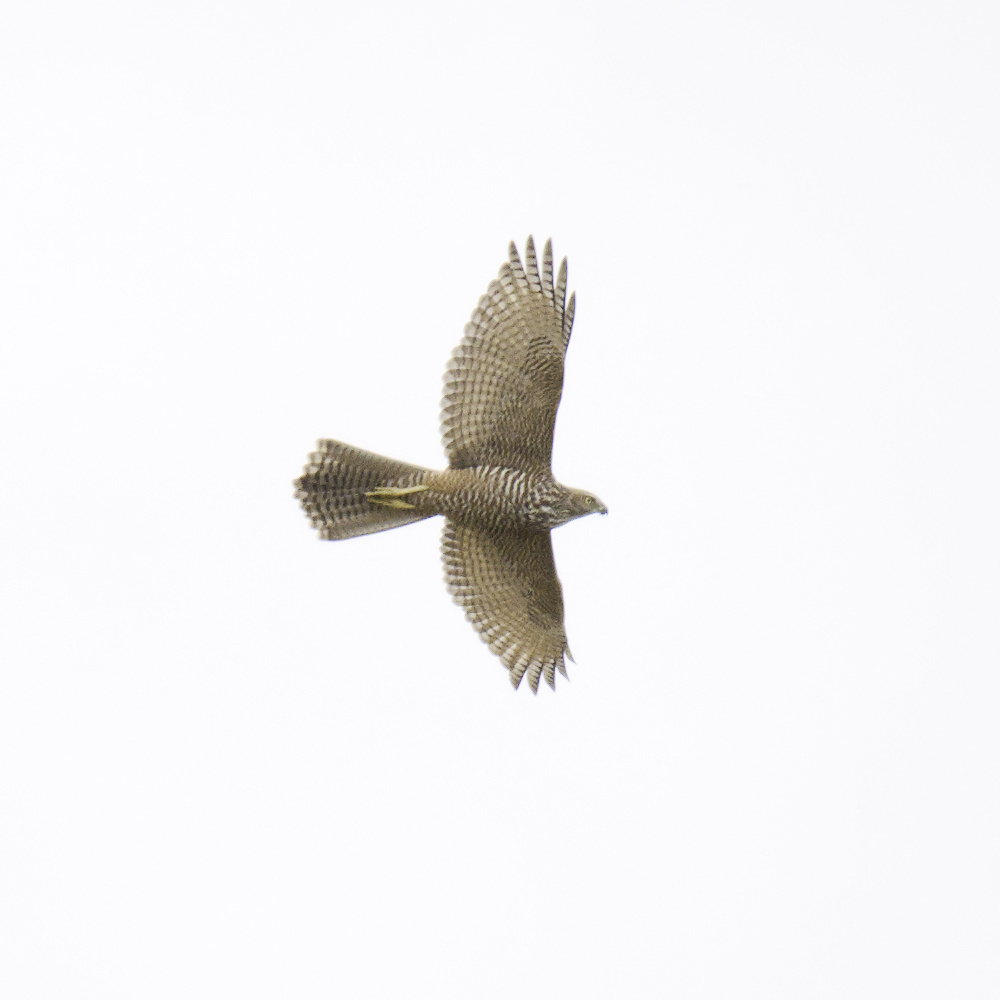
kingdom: Animalia
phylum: Chordata
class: Aves
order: Accipitriformes
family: Accipitridae
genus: Accipiter
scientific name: Accipiter fasciatus
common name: Brown goshawk
